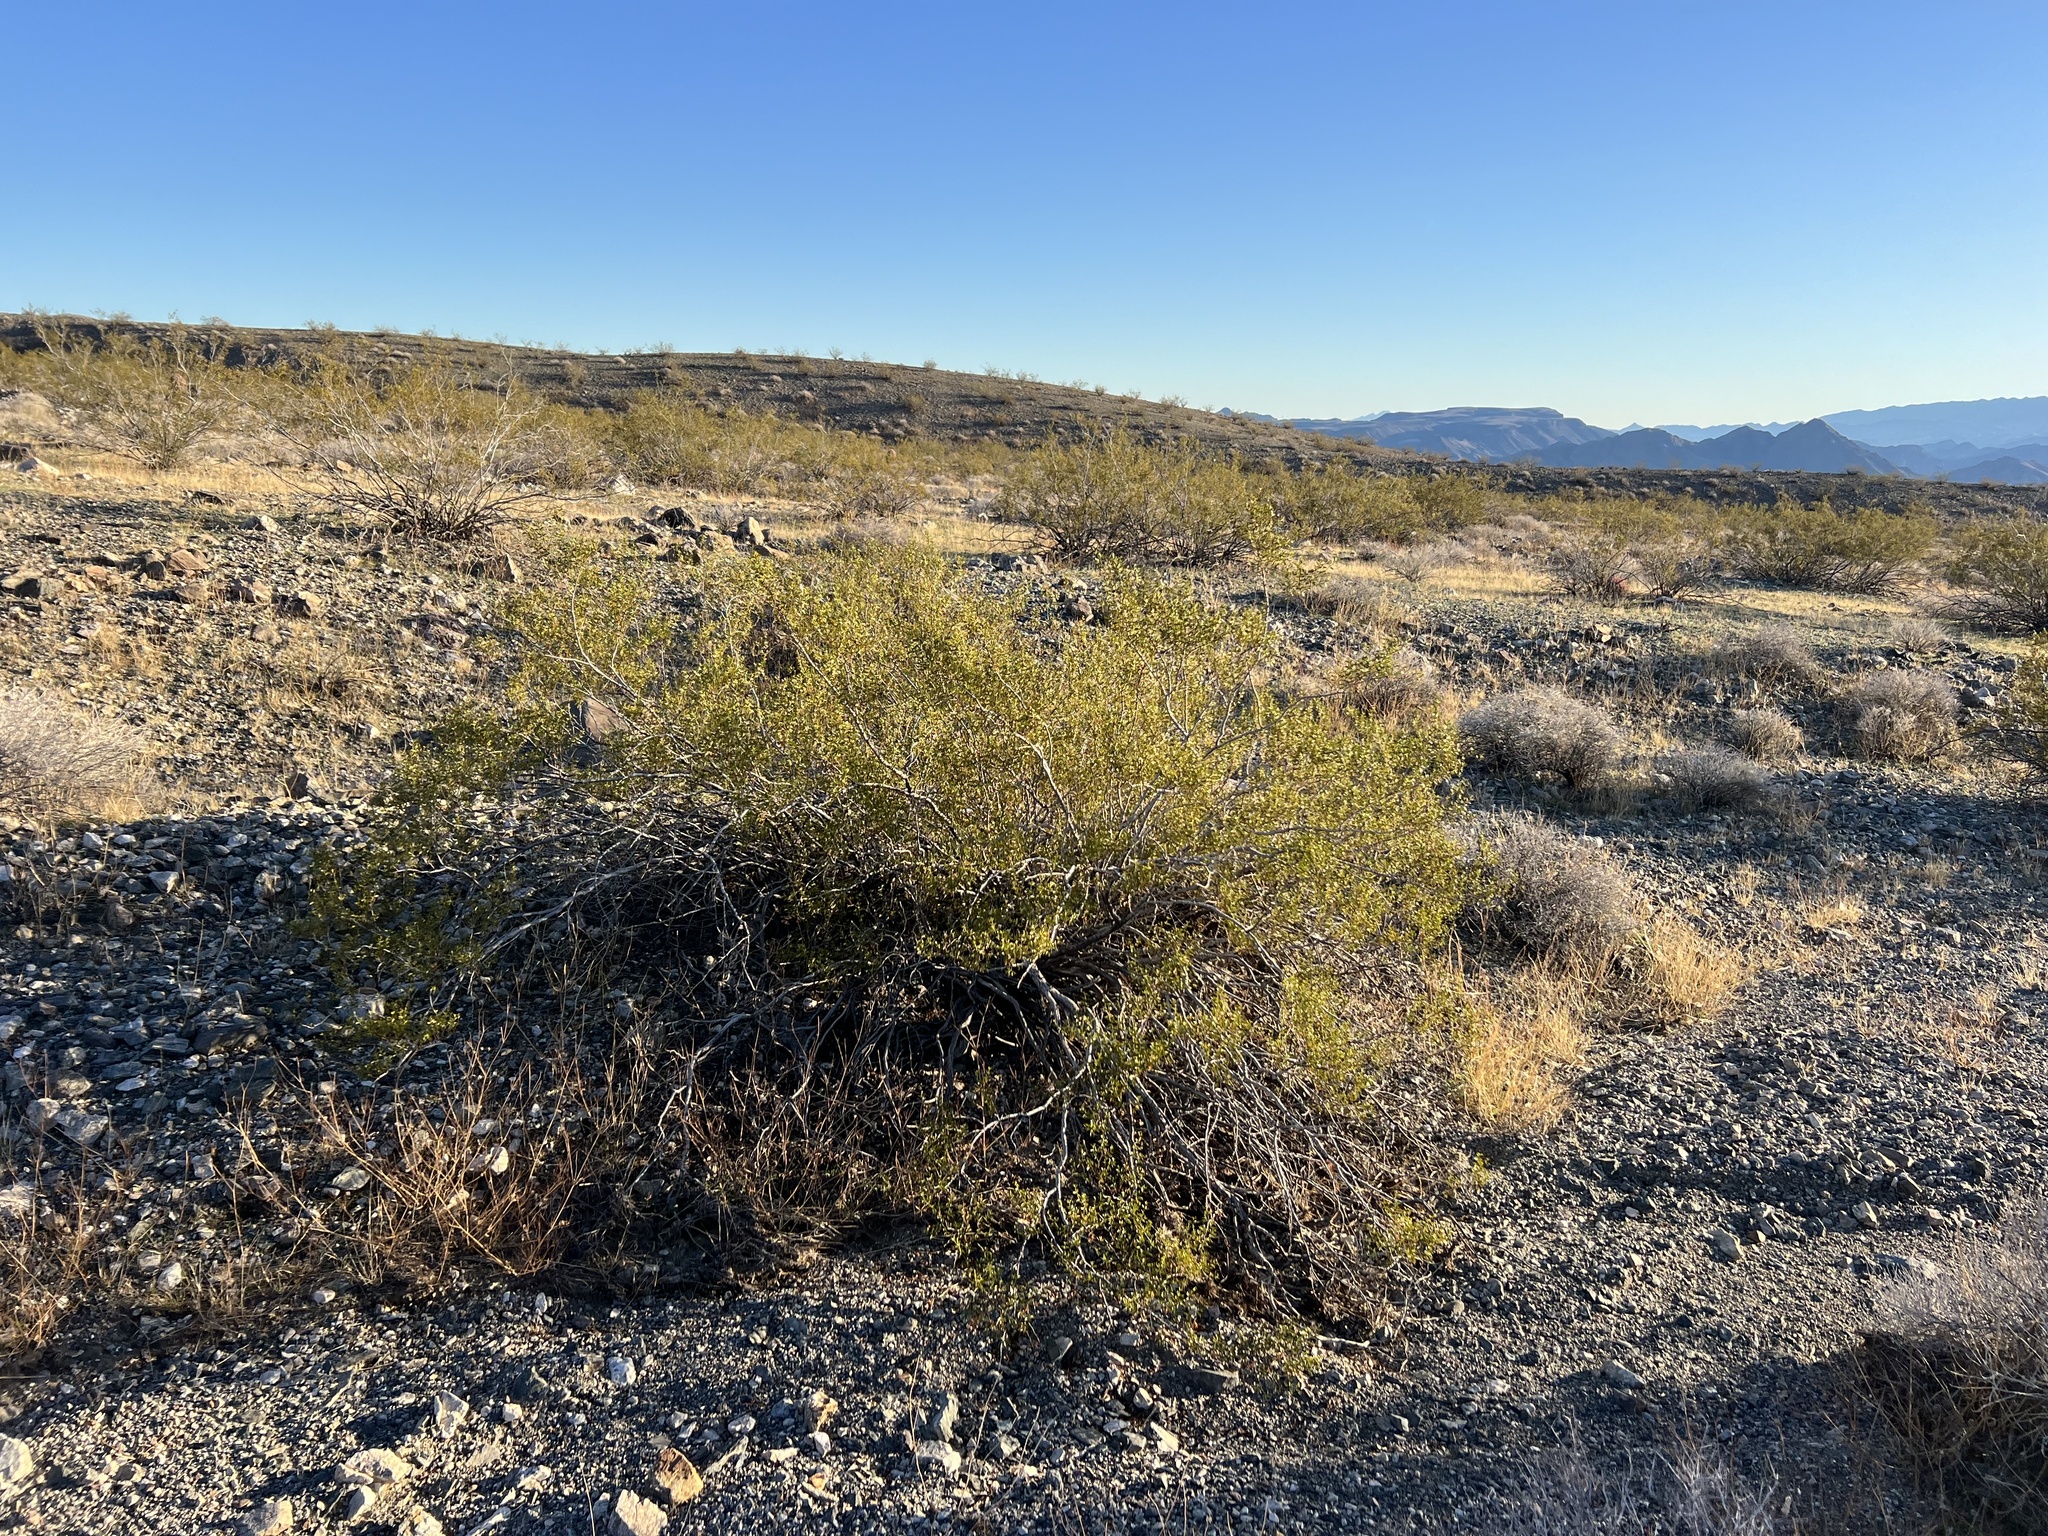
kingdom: Plantae
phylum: Tracheophyta
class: Magnoliopsida
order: Zygophyllales
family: Zygophyllaceae
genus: Larrea
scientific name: Larrea tridentata
